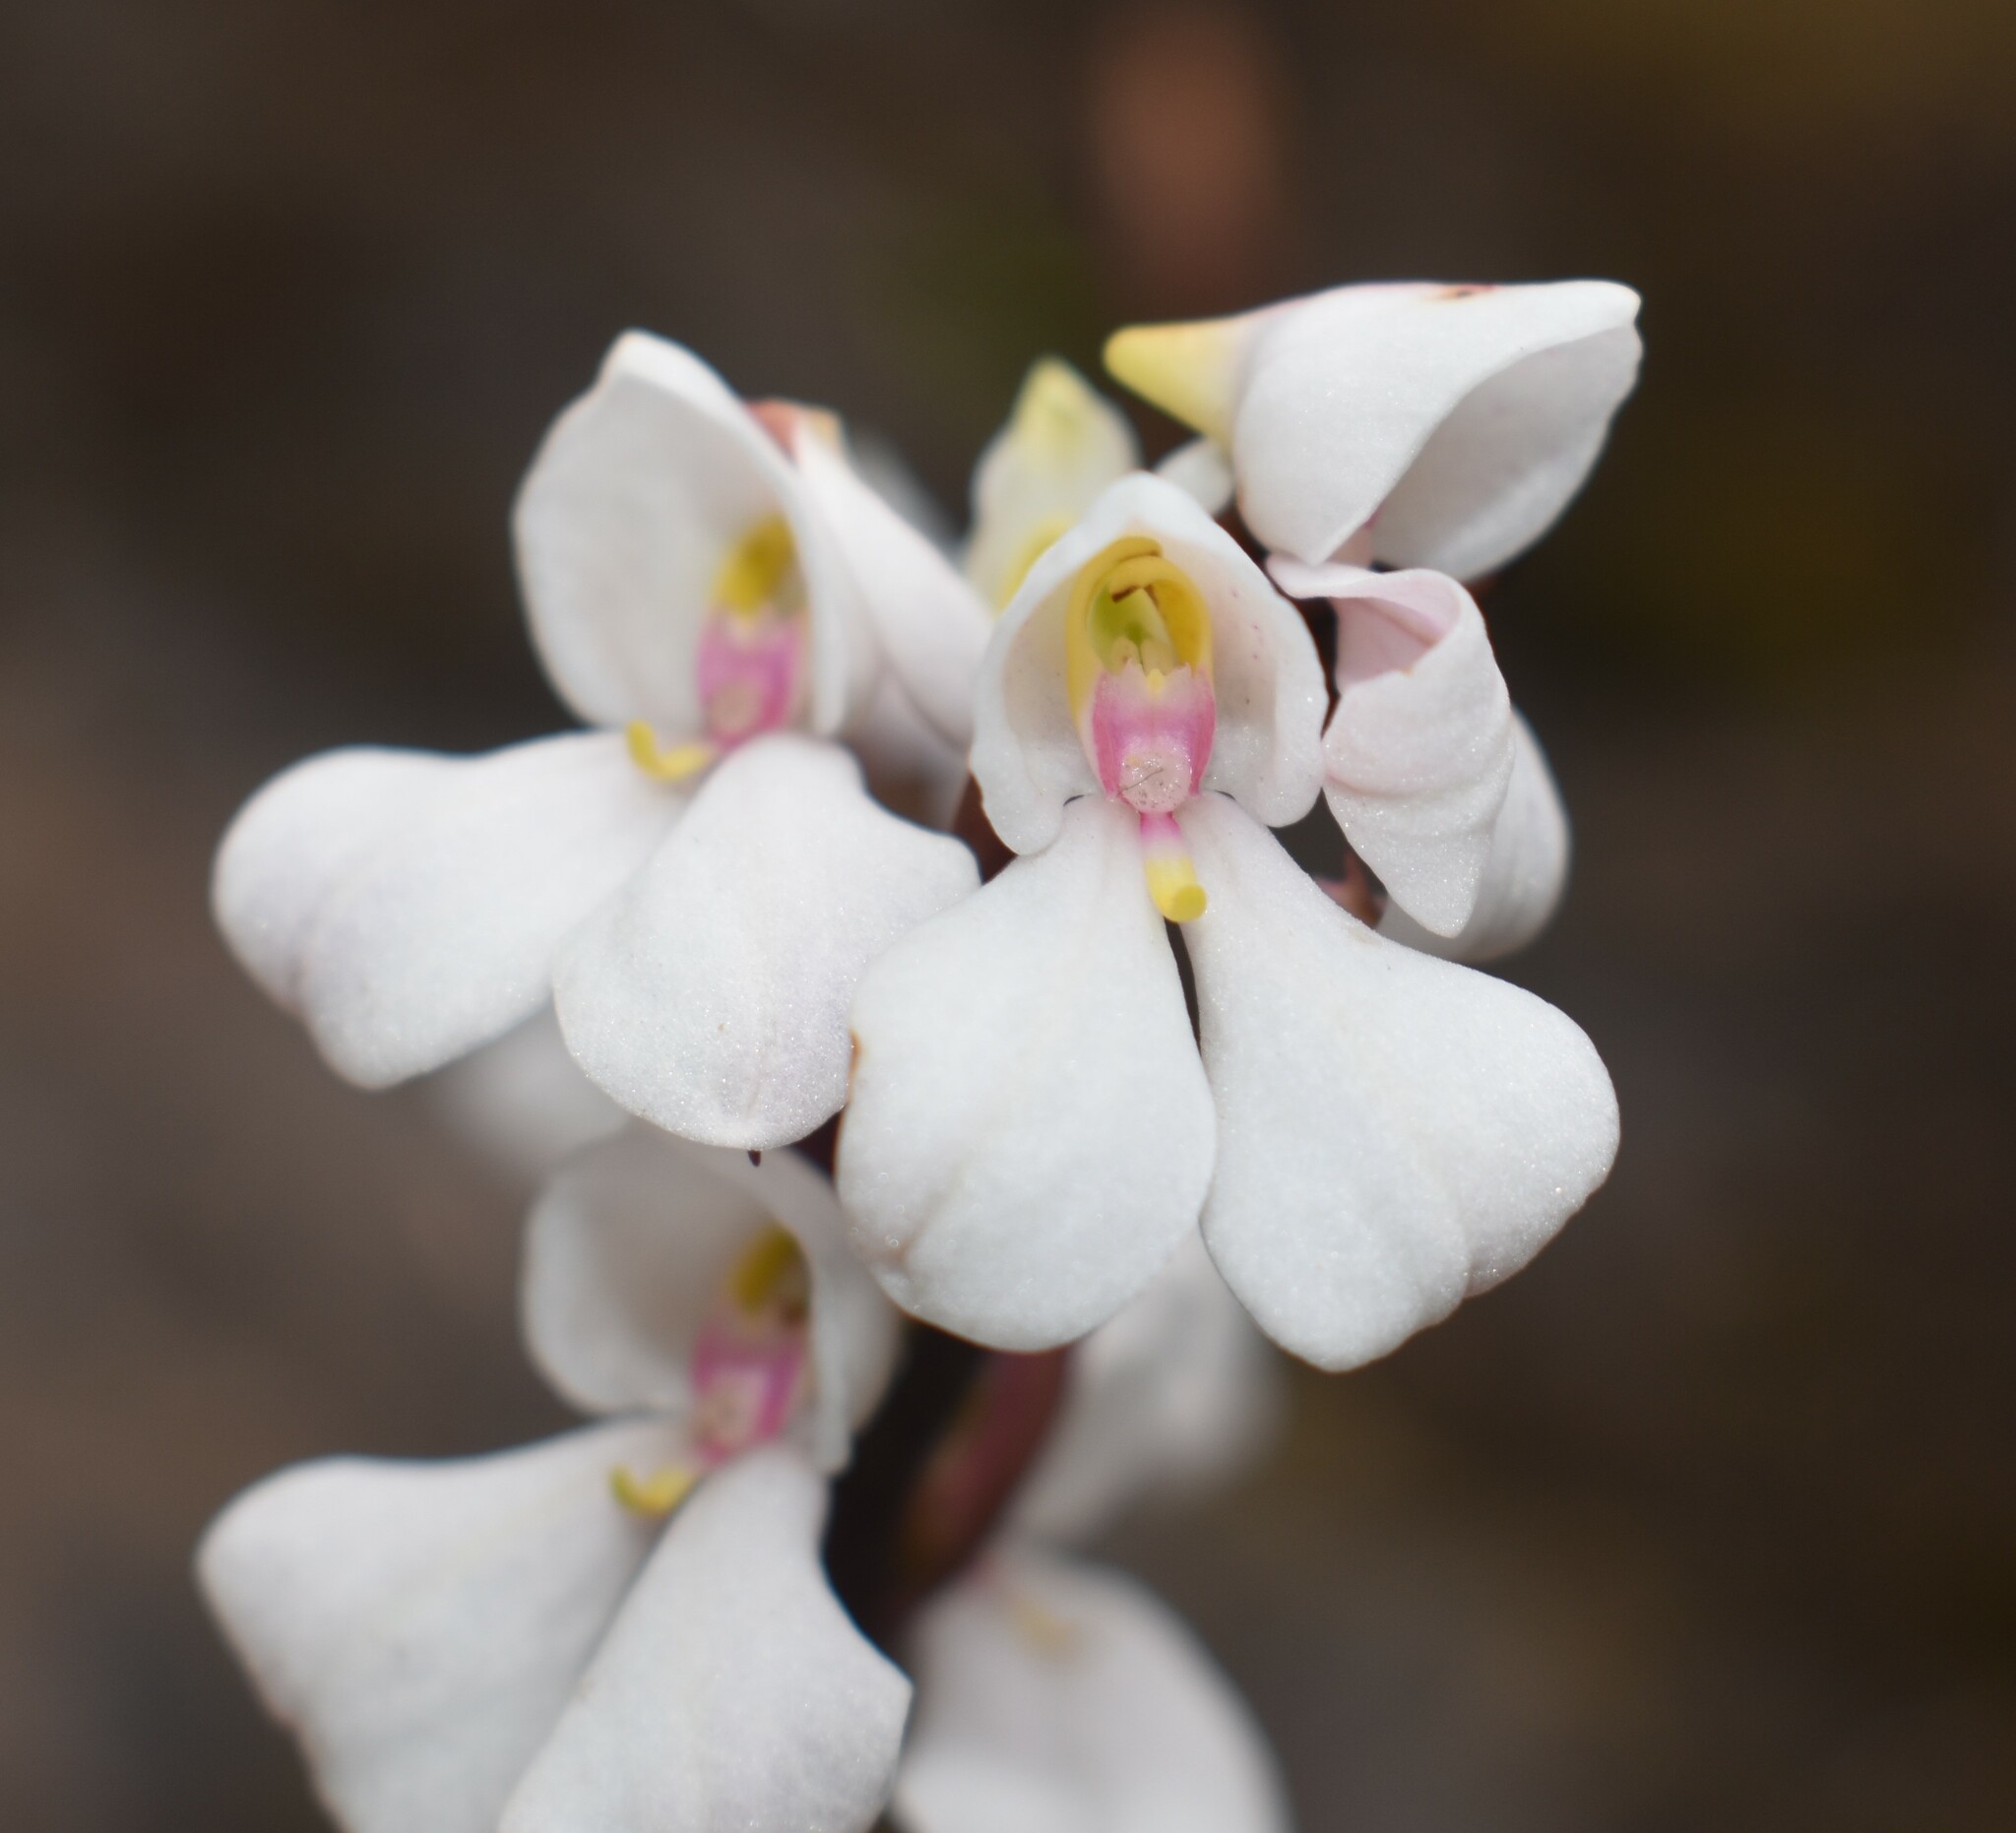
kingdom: Plantae
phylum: Tracheophyta
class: Liliopsida
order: Asparagales
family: Orchidaceae
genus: Disa
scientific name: Disa tripetaloides
